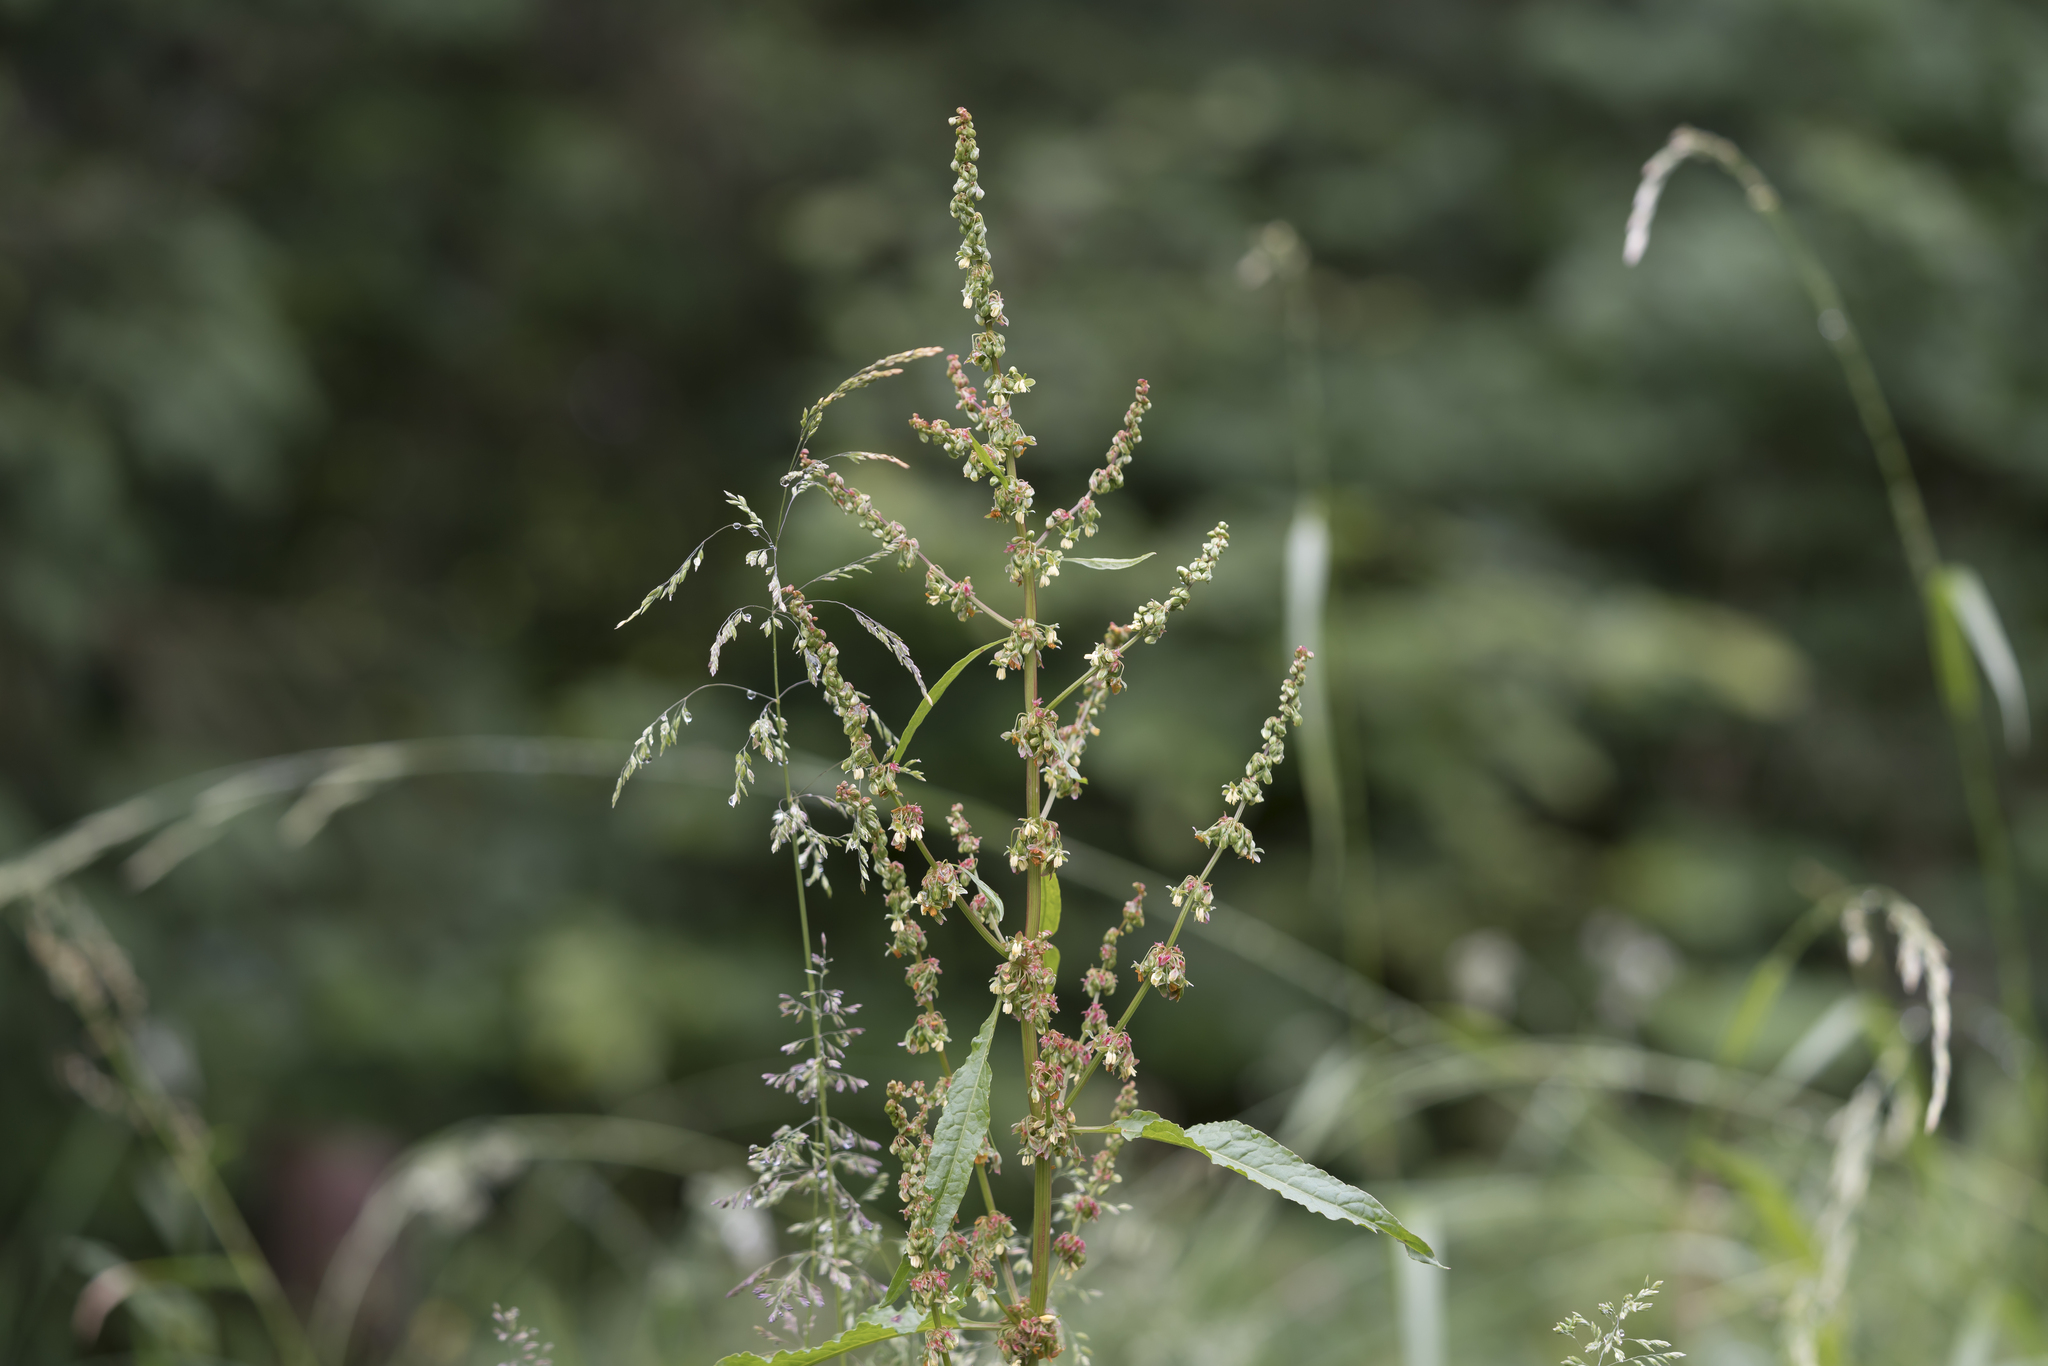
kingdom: Plantae
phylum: Tracheophyta
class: Magnoliopsida
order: Caryophyllales
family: Polygonaceae
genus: Rumex
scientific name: Rumex obtusifolius
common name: Bitter dock
